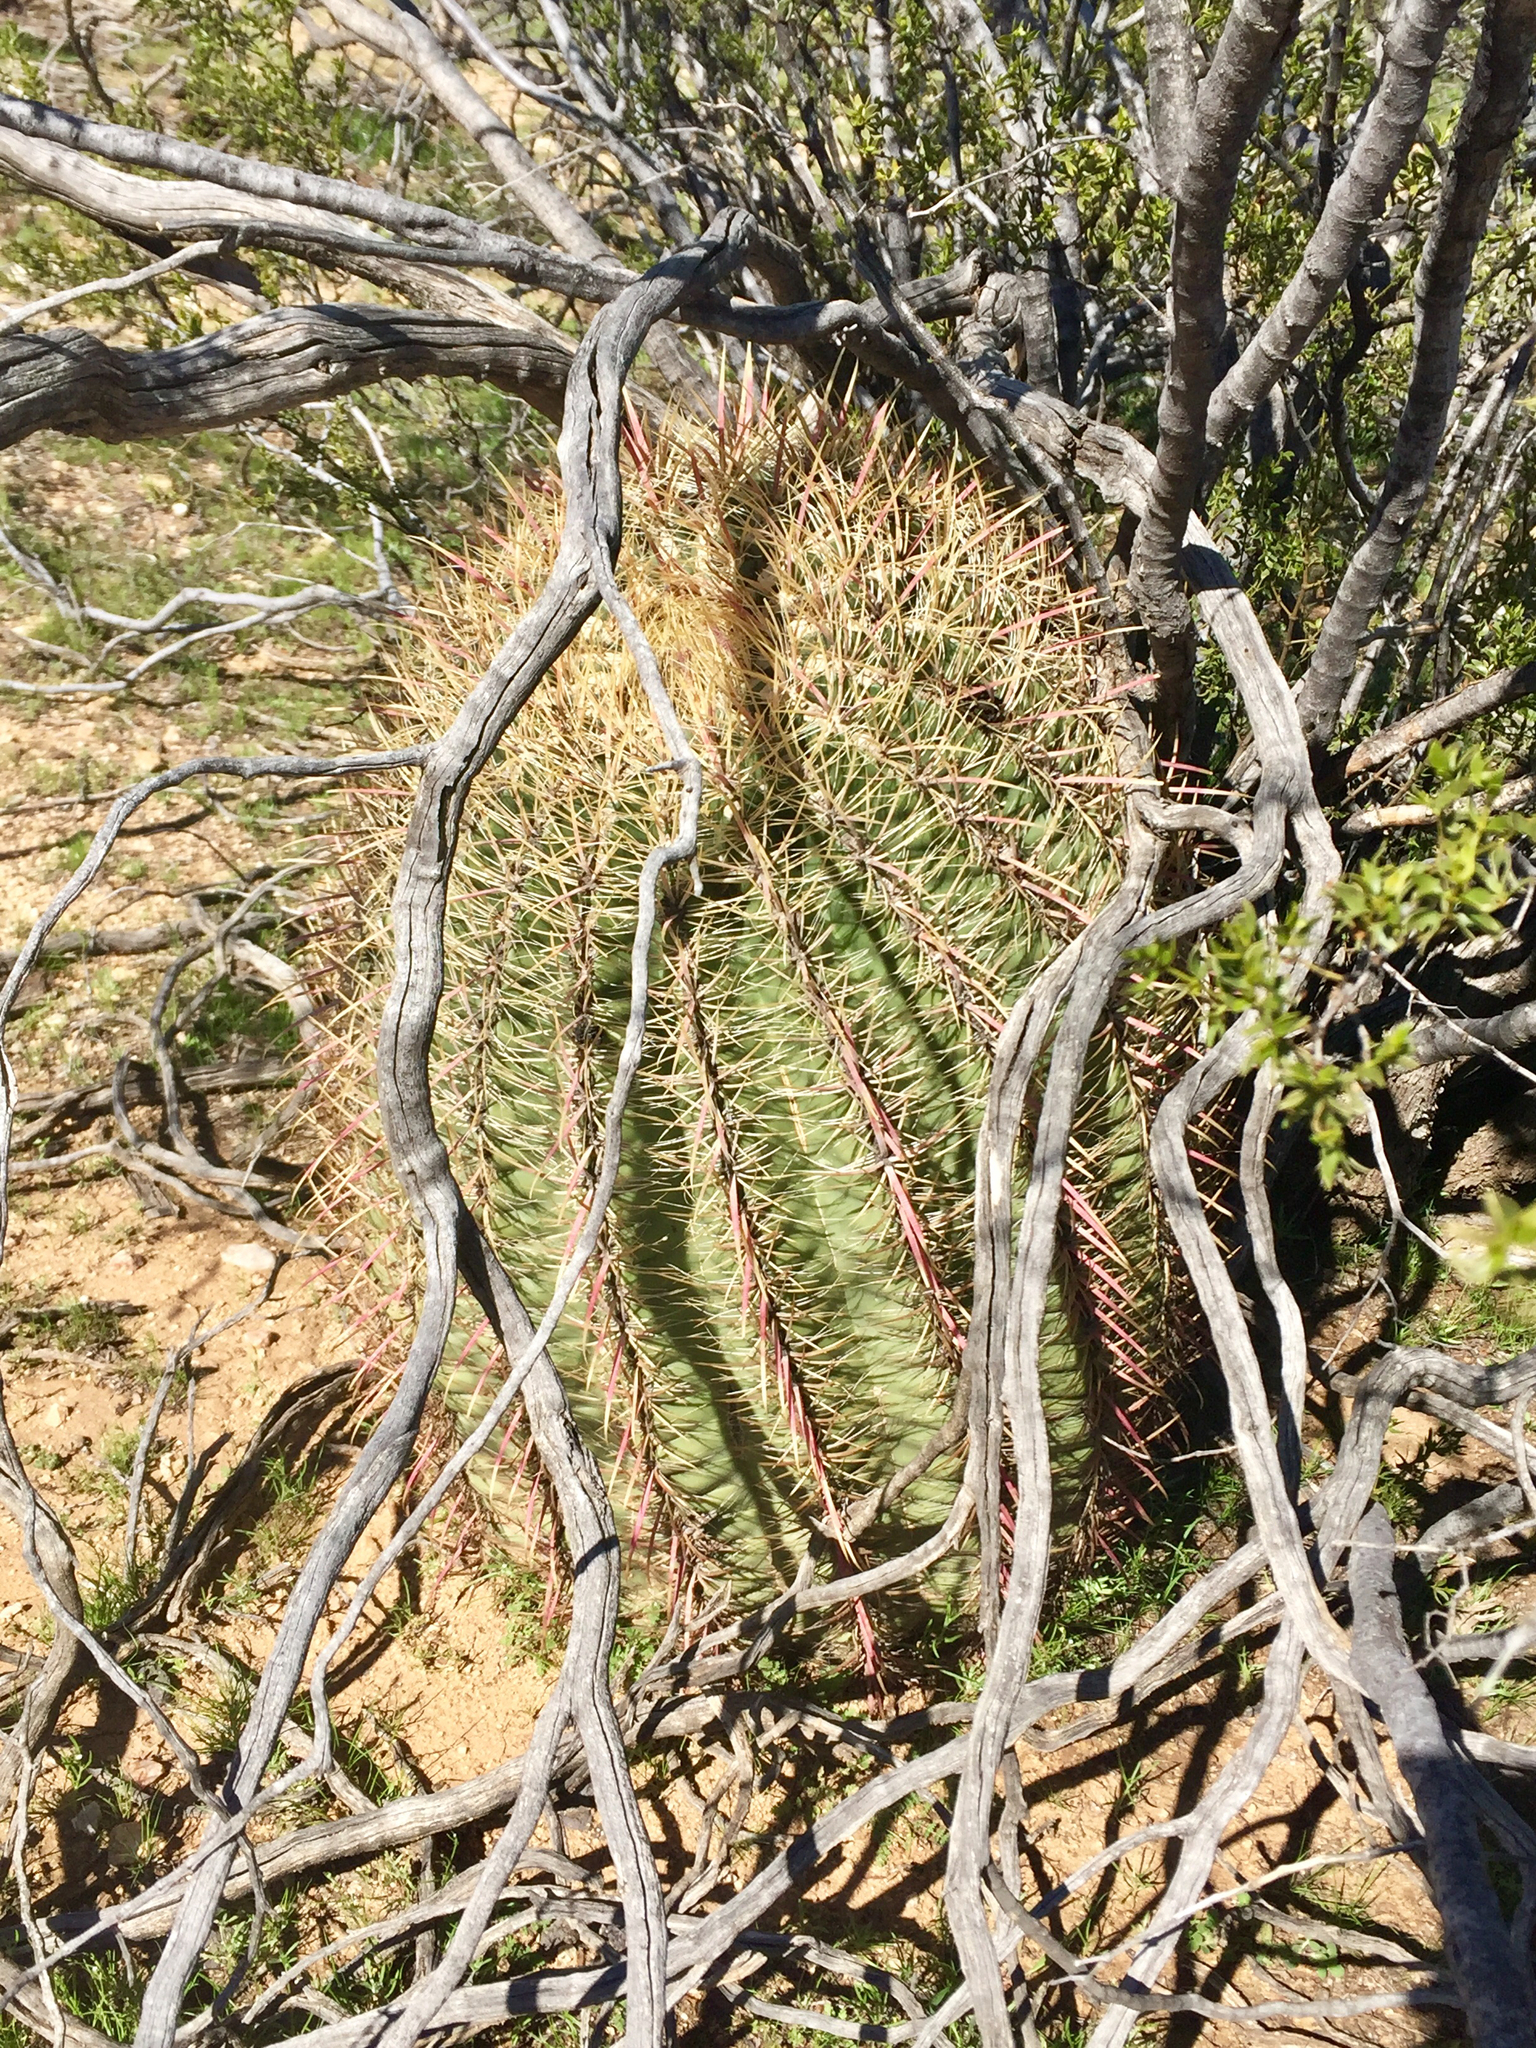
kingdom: Plantae
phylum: Tracheophyta
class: Magnoliopsida
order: Caryophyllales
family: Cactaceae
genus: Ferocactus
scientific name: Ferocactus cylindraceus
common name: California barrel cactus
